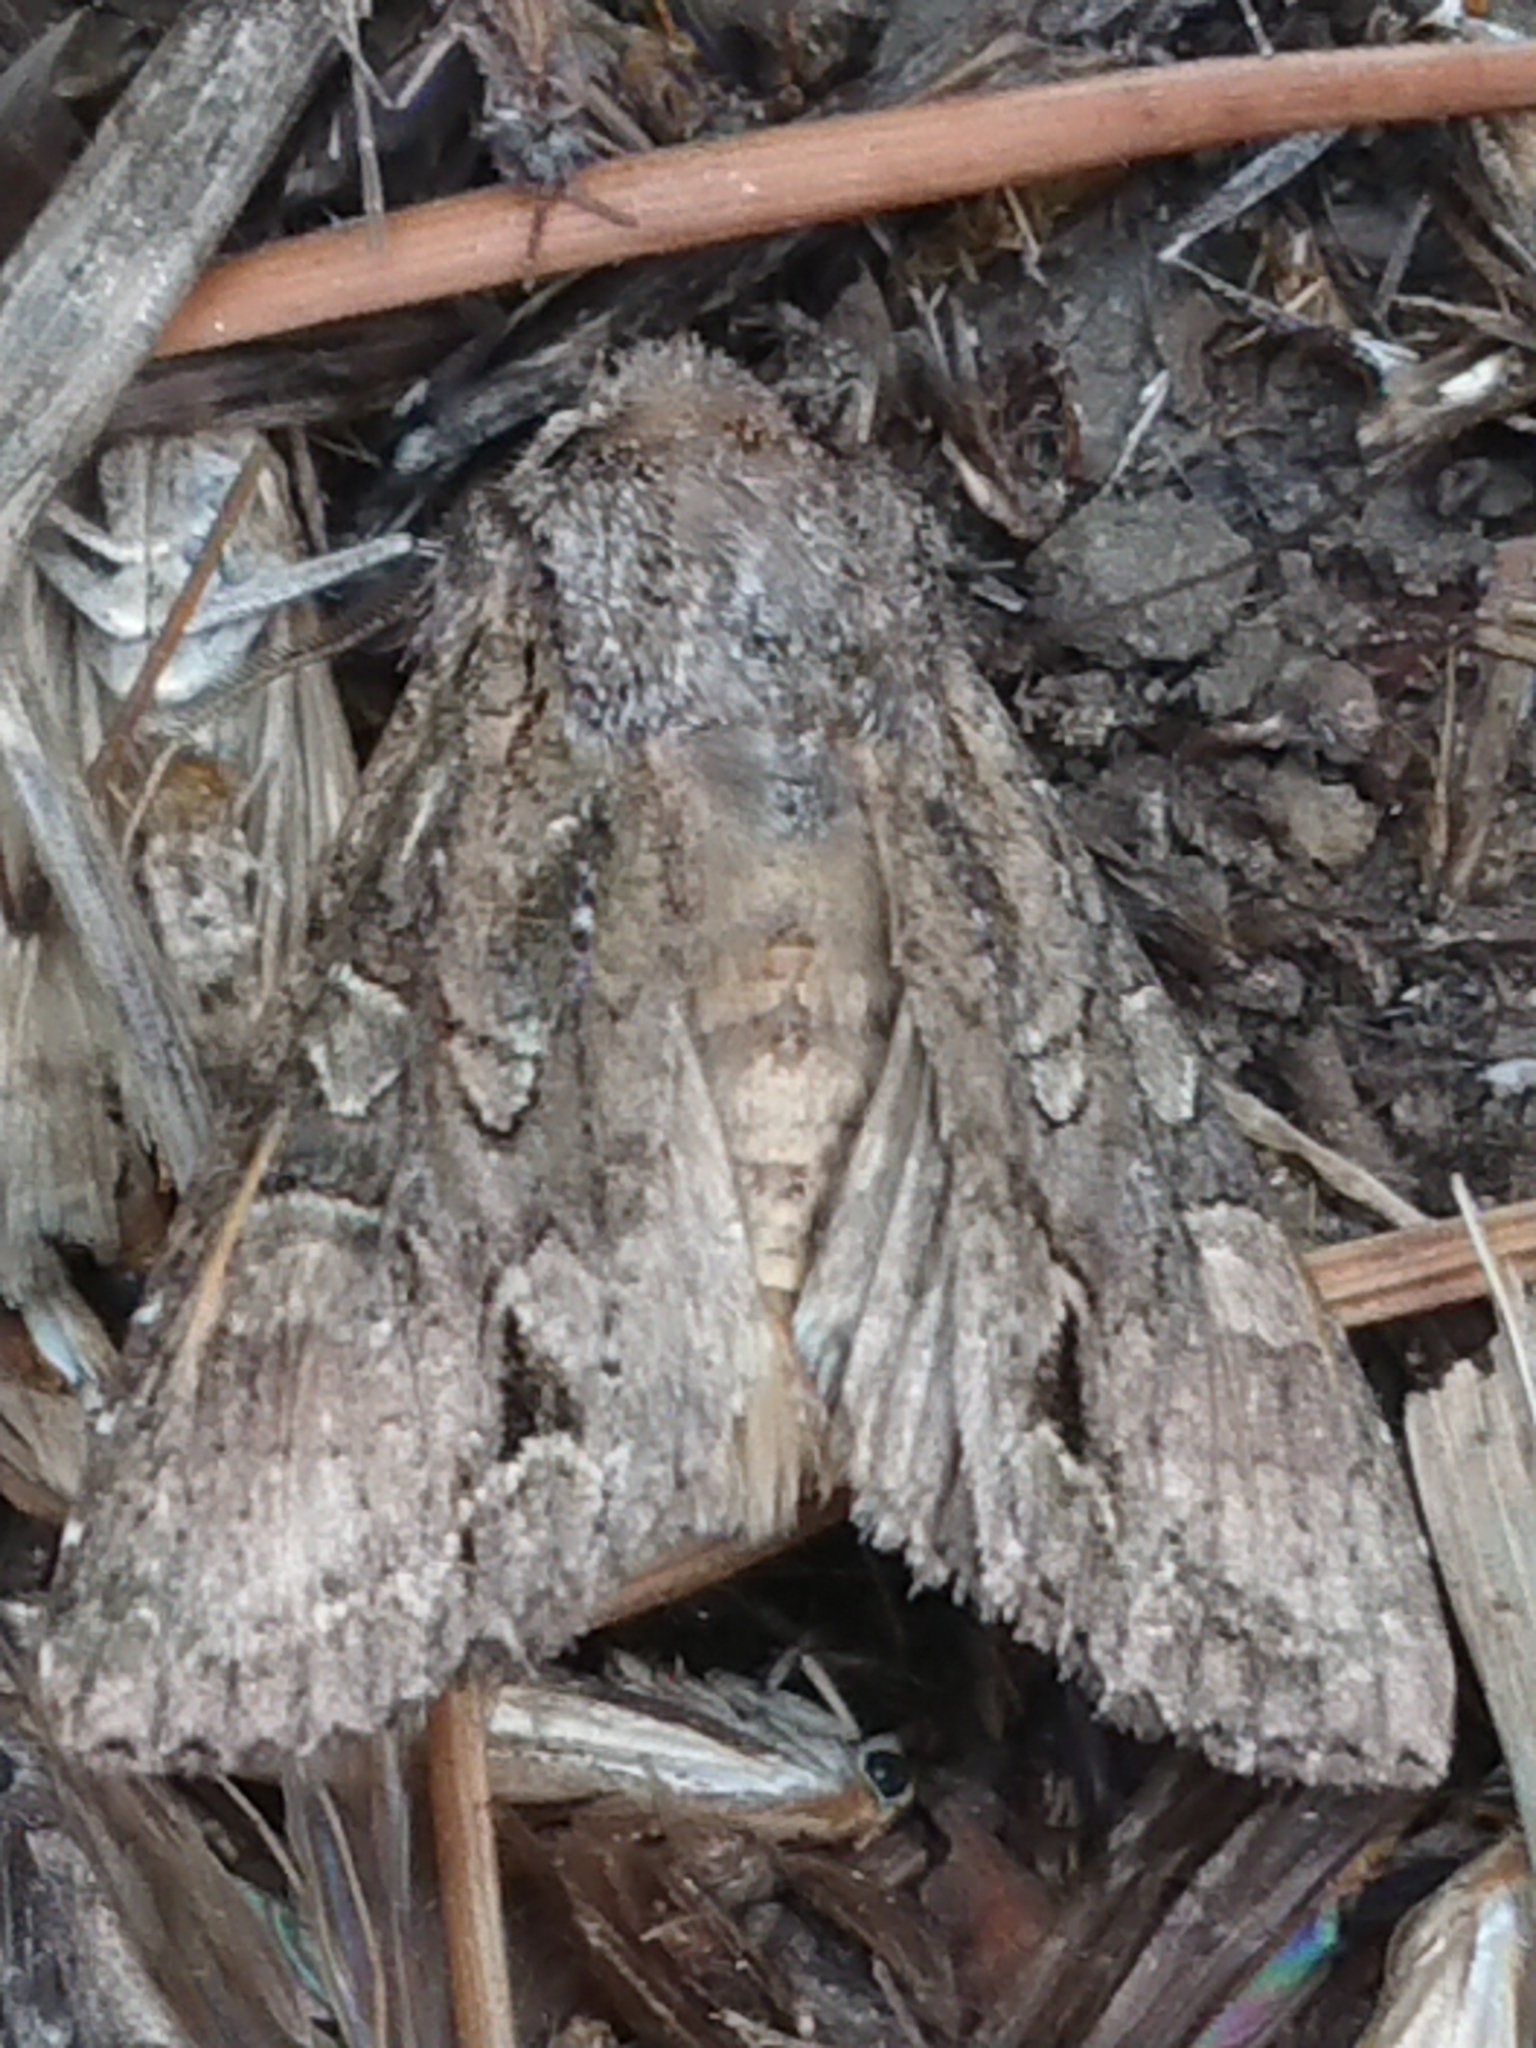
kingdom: Animalia
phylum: Arthropoda
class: Insecta
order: Lepidoptera
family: Noctuidae
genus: Ichneutica
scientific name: Ichneutica mutans
